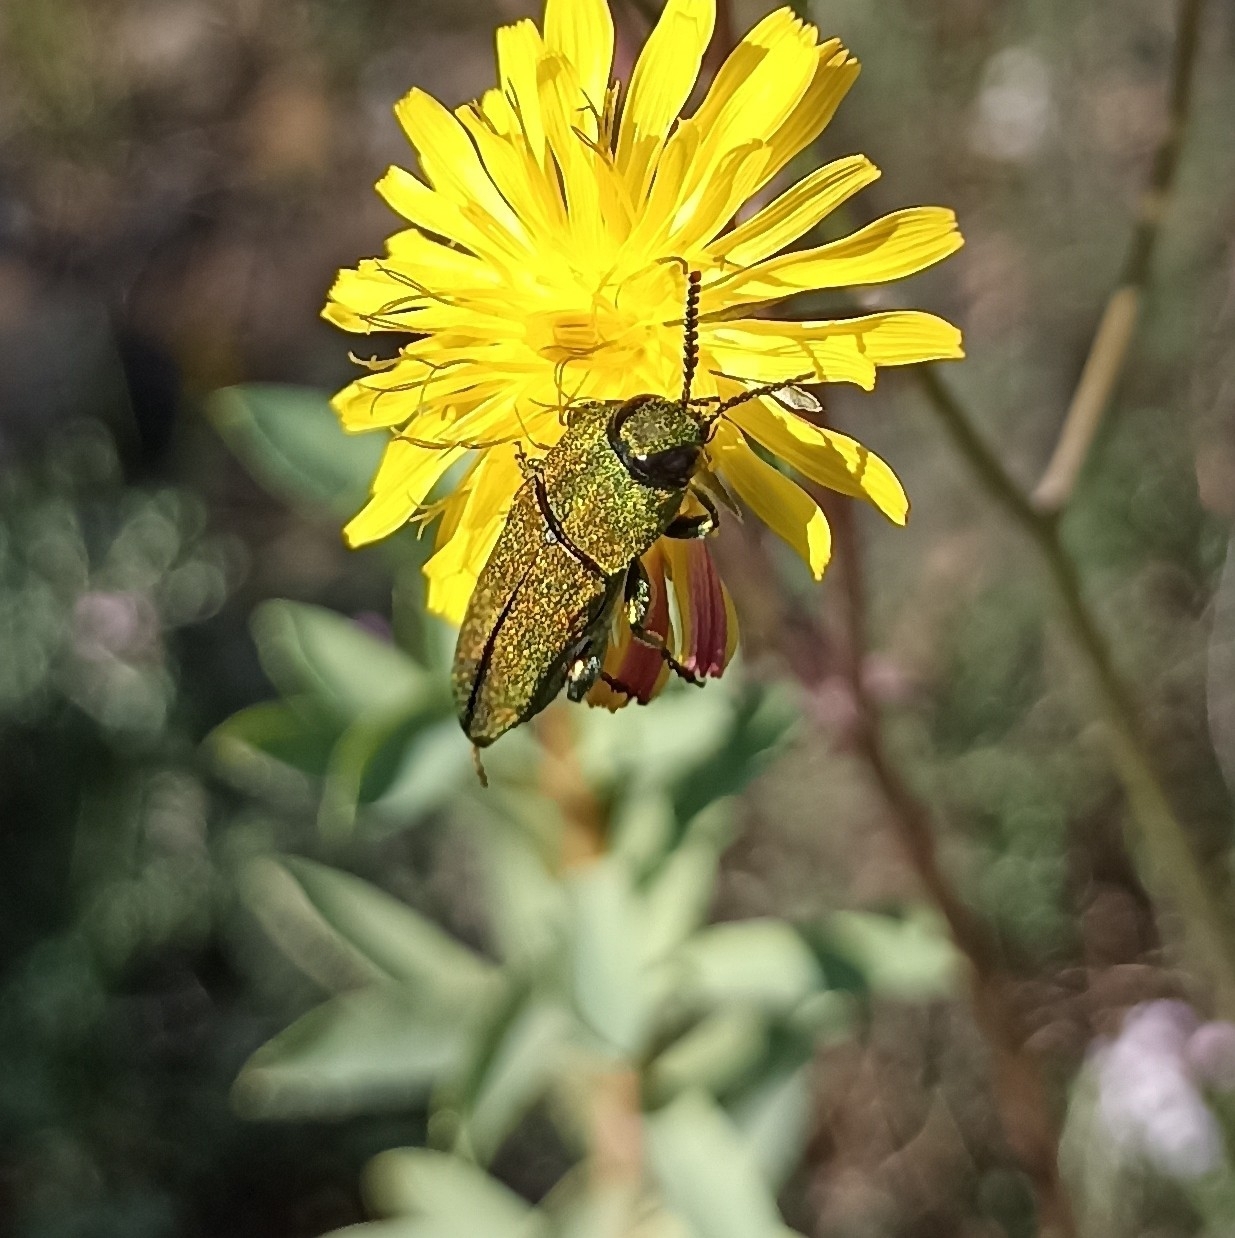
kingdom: Animalia
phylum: Arthropoda
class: Insecta
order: Coleoptera
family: Buprestidae
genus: Anthaxia
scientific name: Anthaxia hungarica
